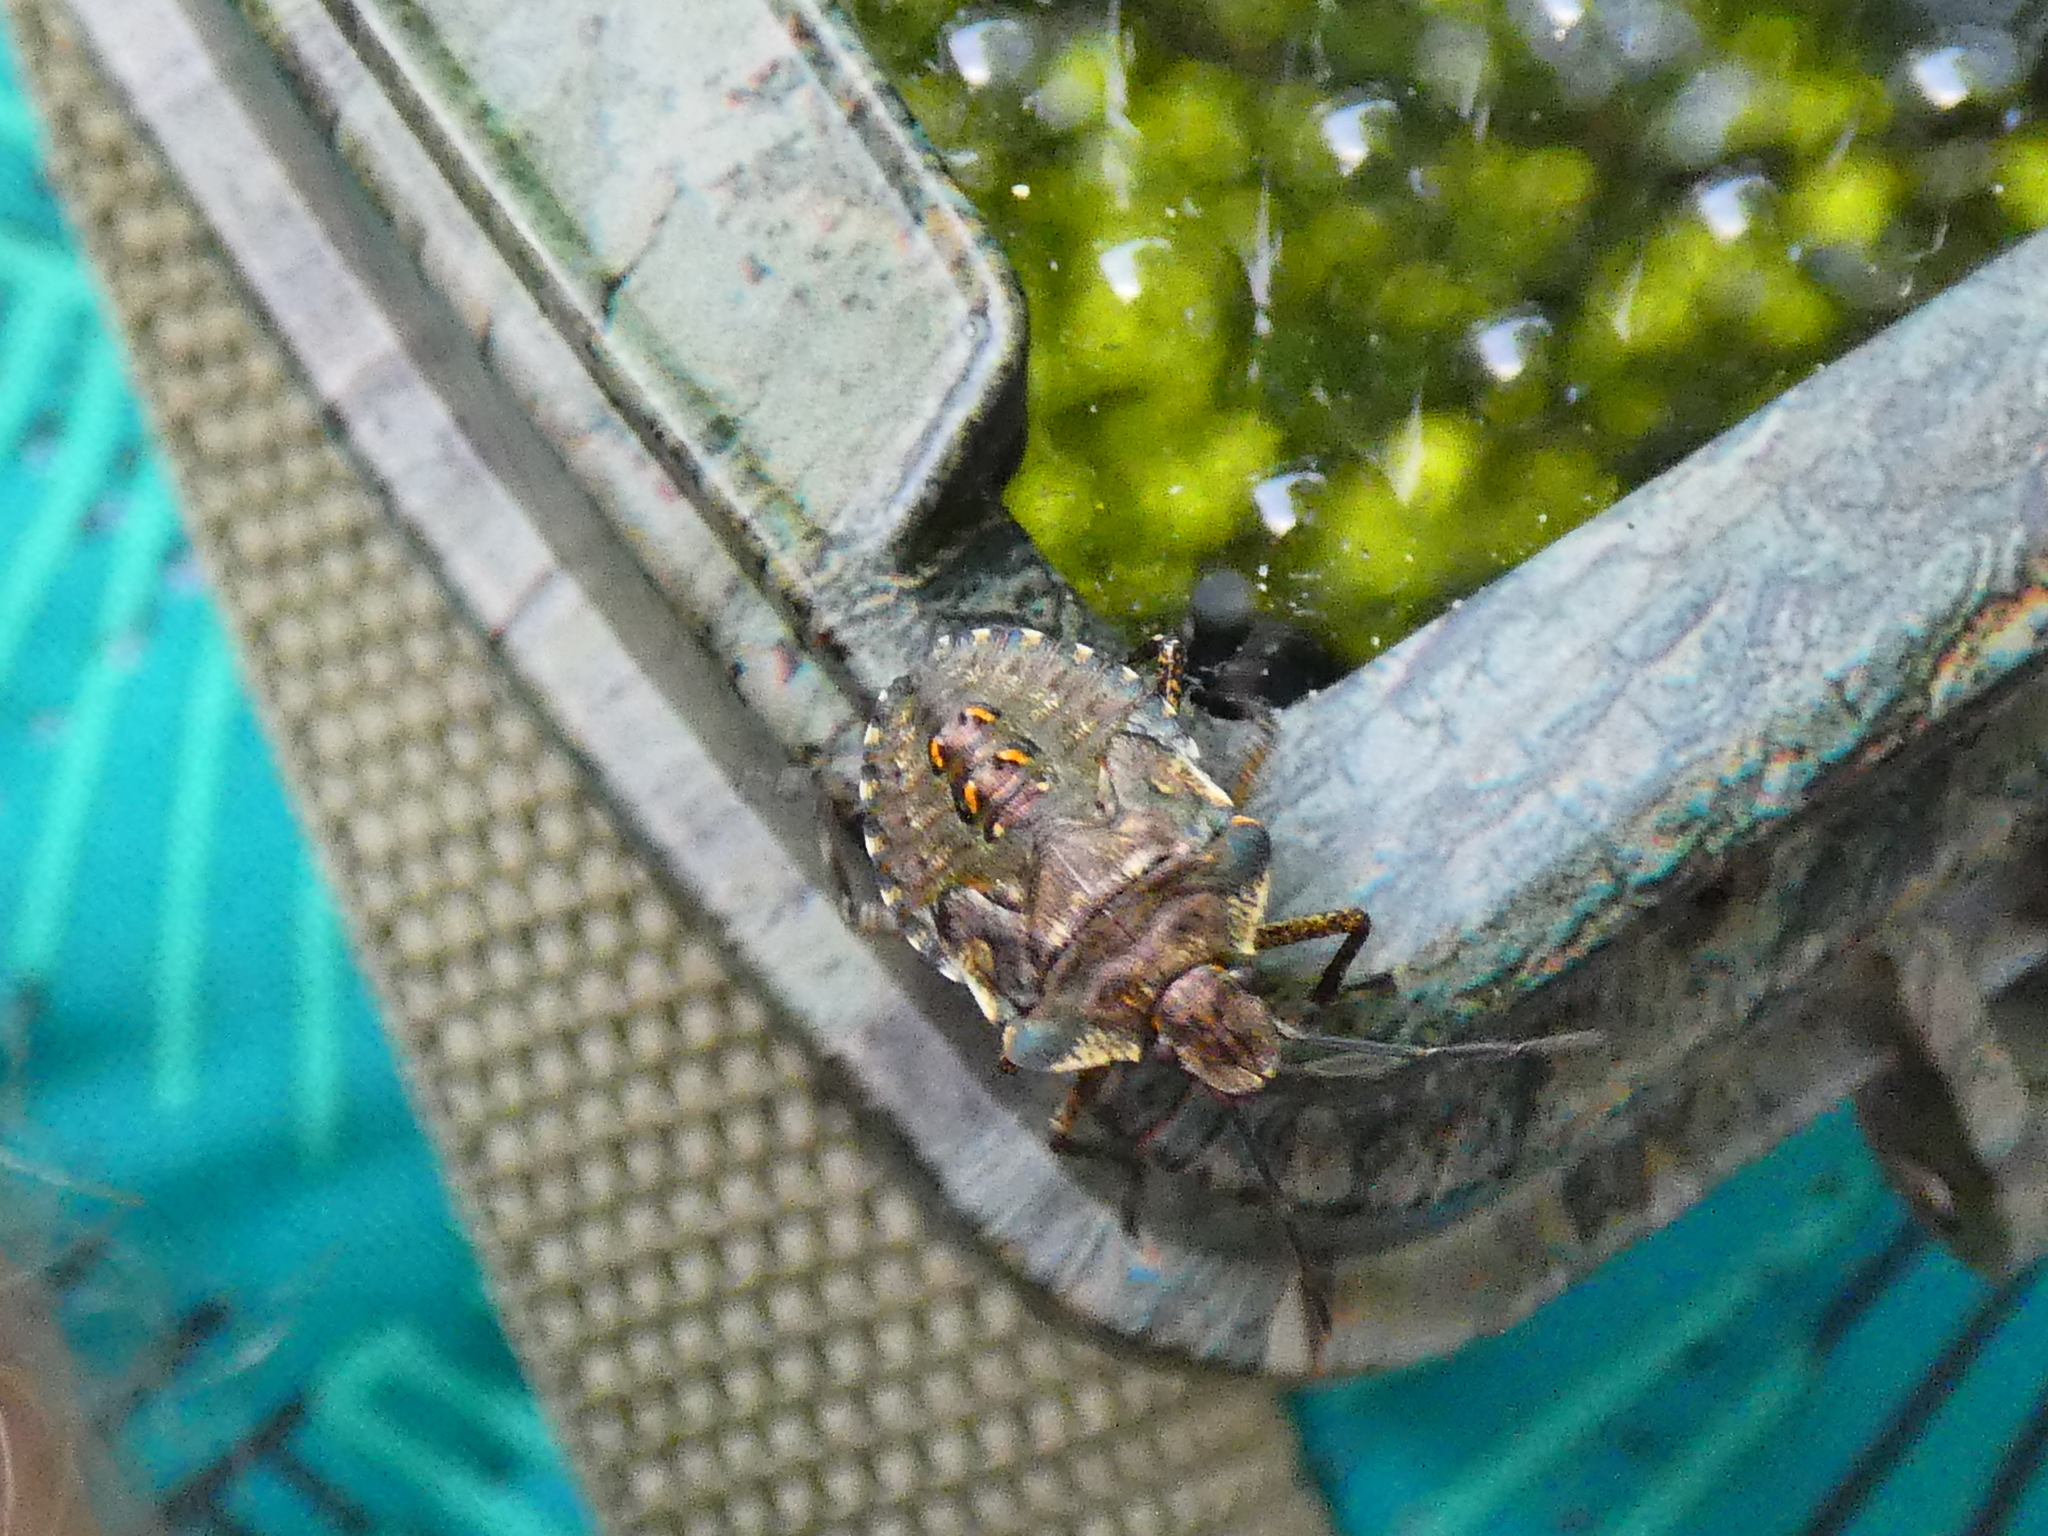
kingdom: Animalia
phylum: Arthropoda
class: Insecta
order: Hemiptera
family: Pentatomidae
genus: Pentatoma
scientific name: Pentatoma rufipes
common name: Forest bug
